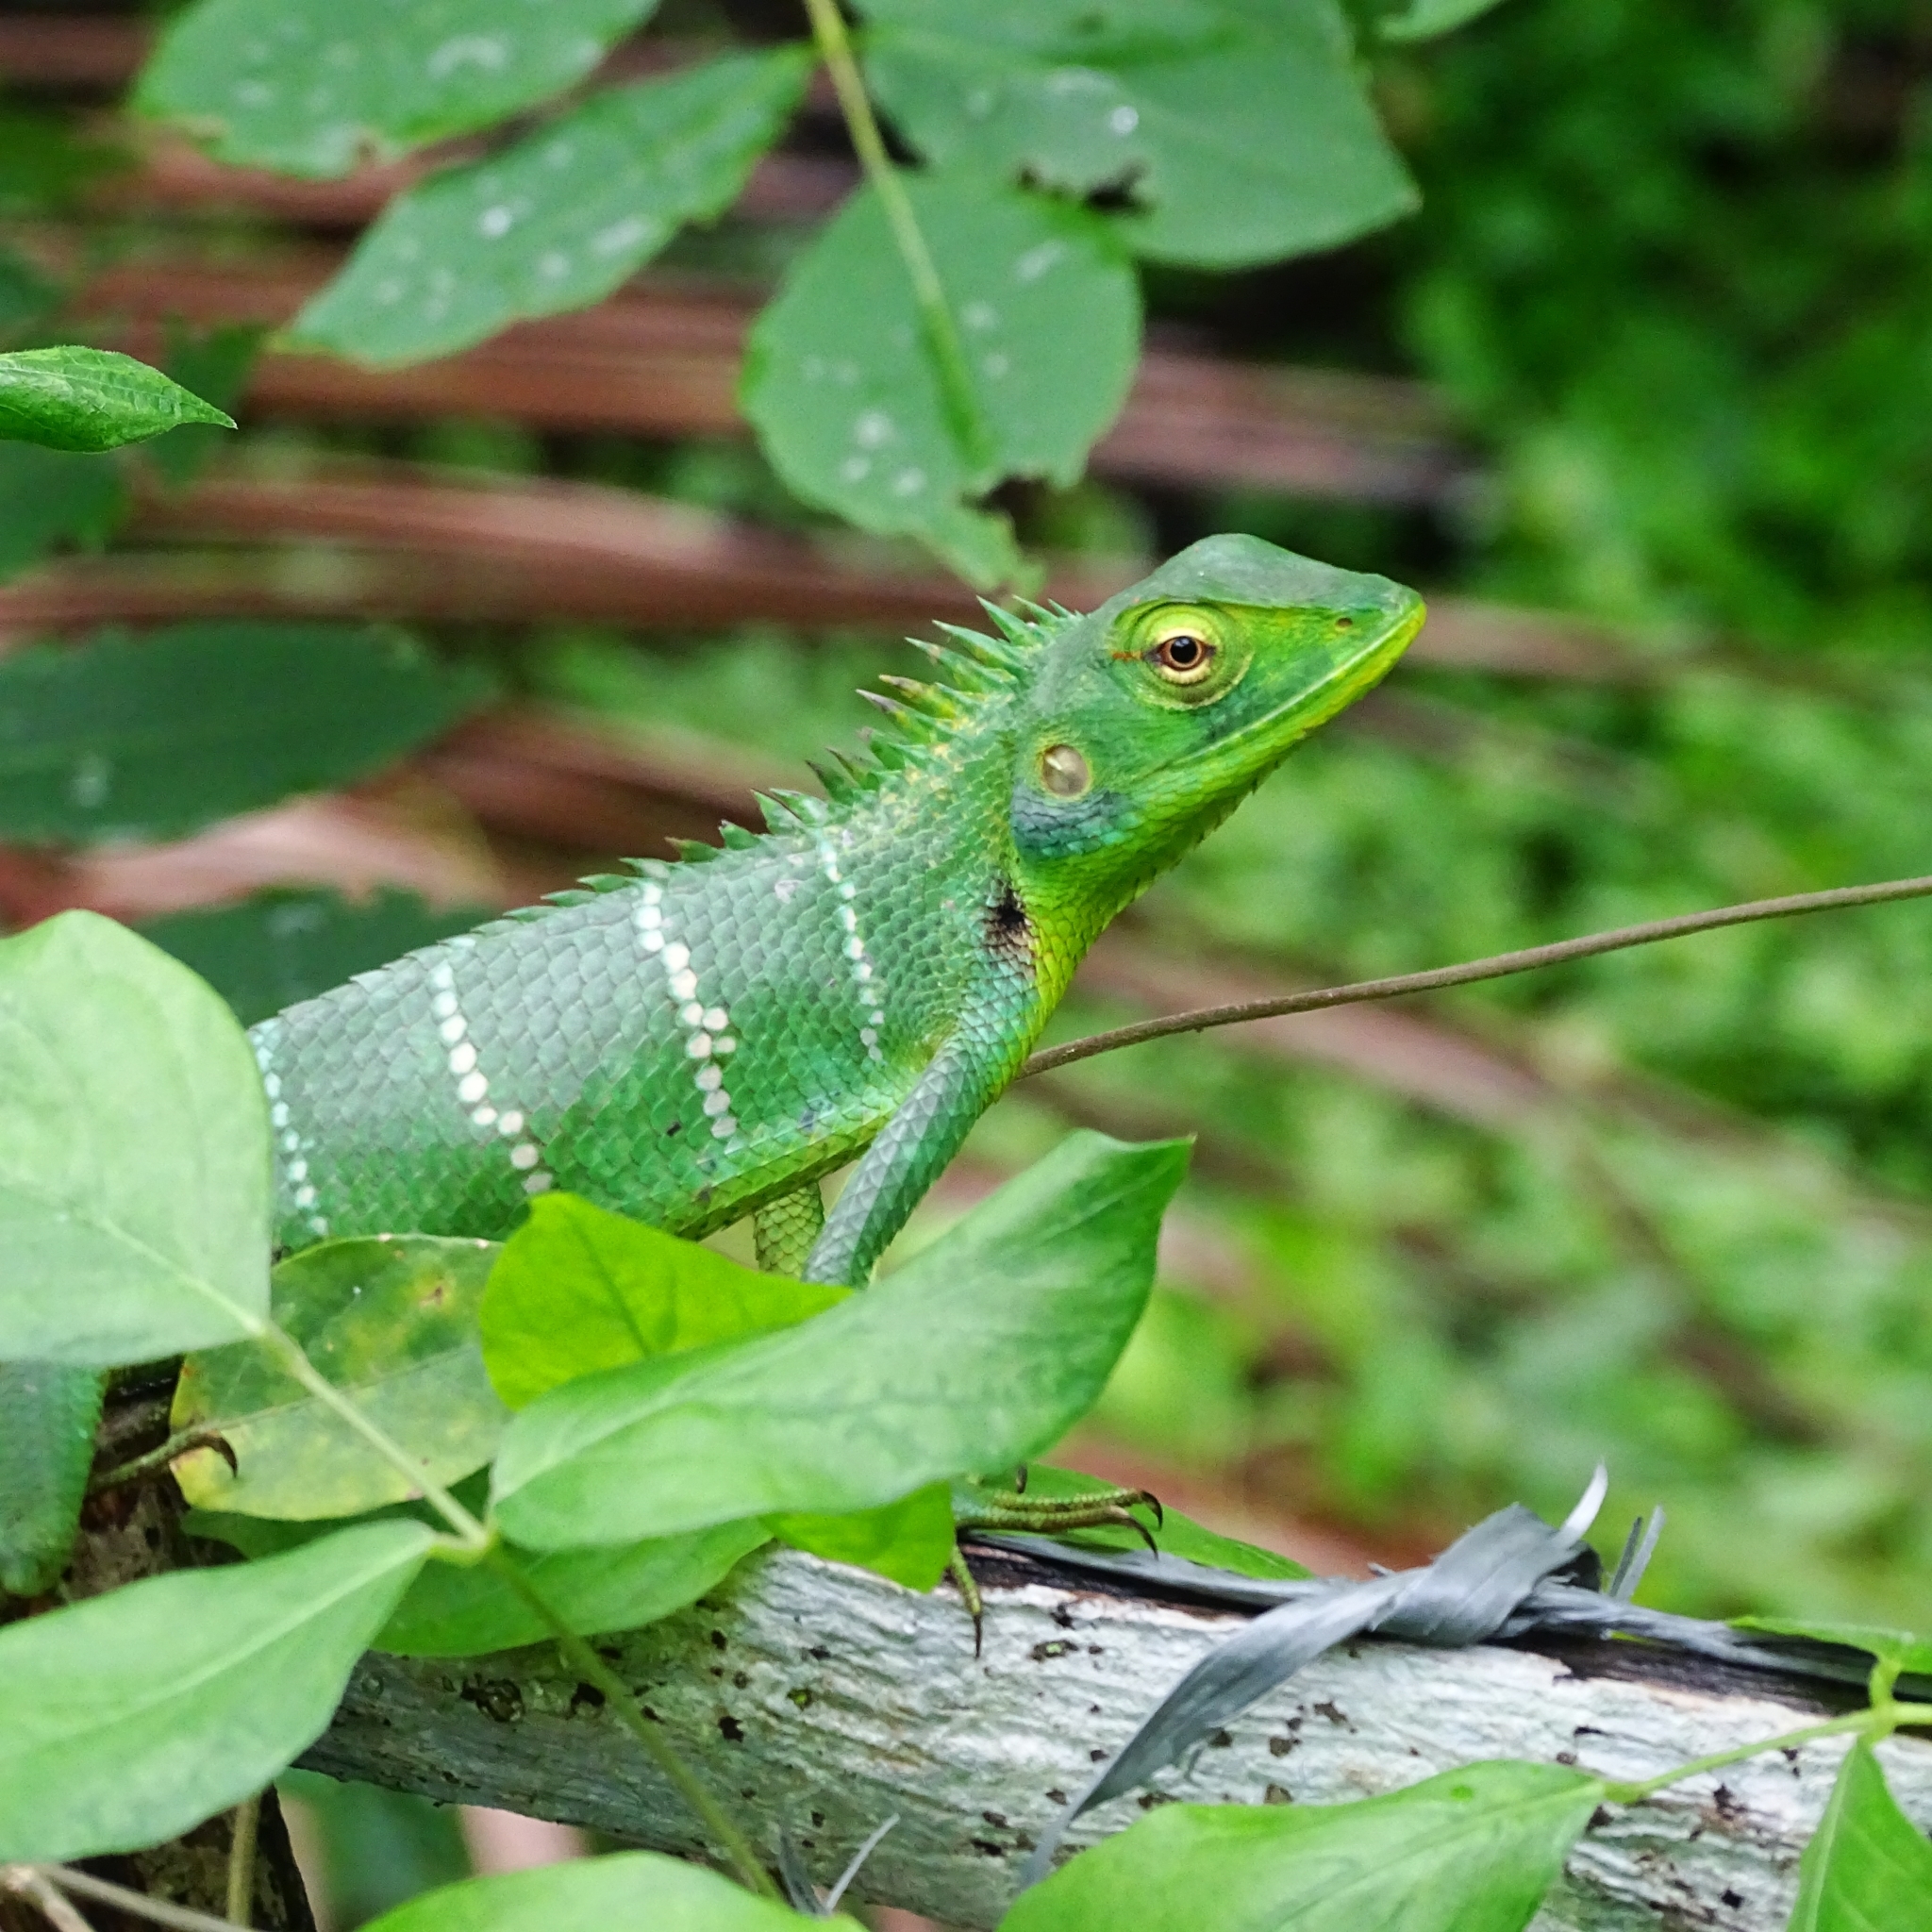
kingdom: Animalia
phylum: Chordata
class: Squamata
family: Agamidae
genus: Calotes
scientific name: Calotes calotes
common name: Common green forest lizard
